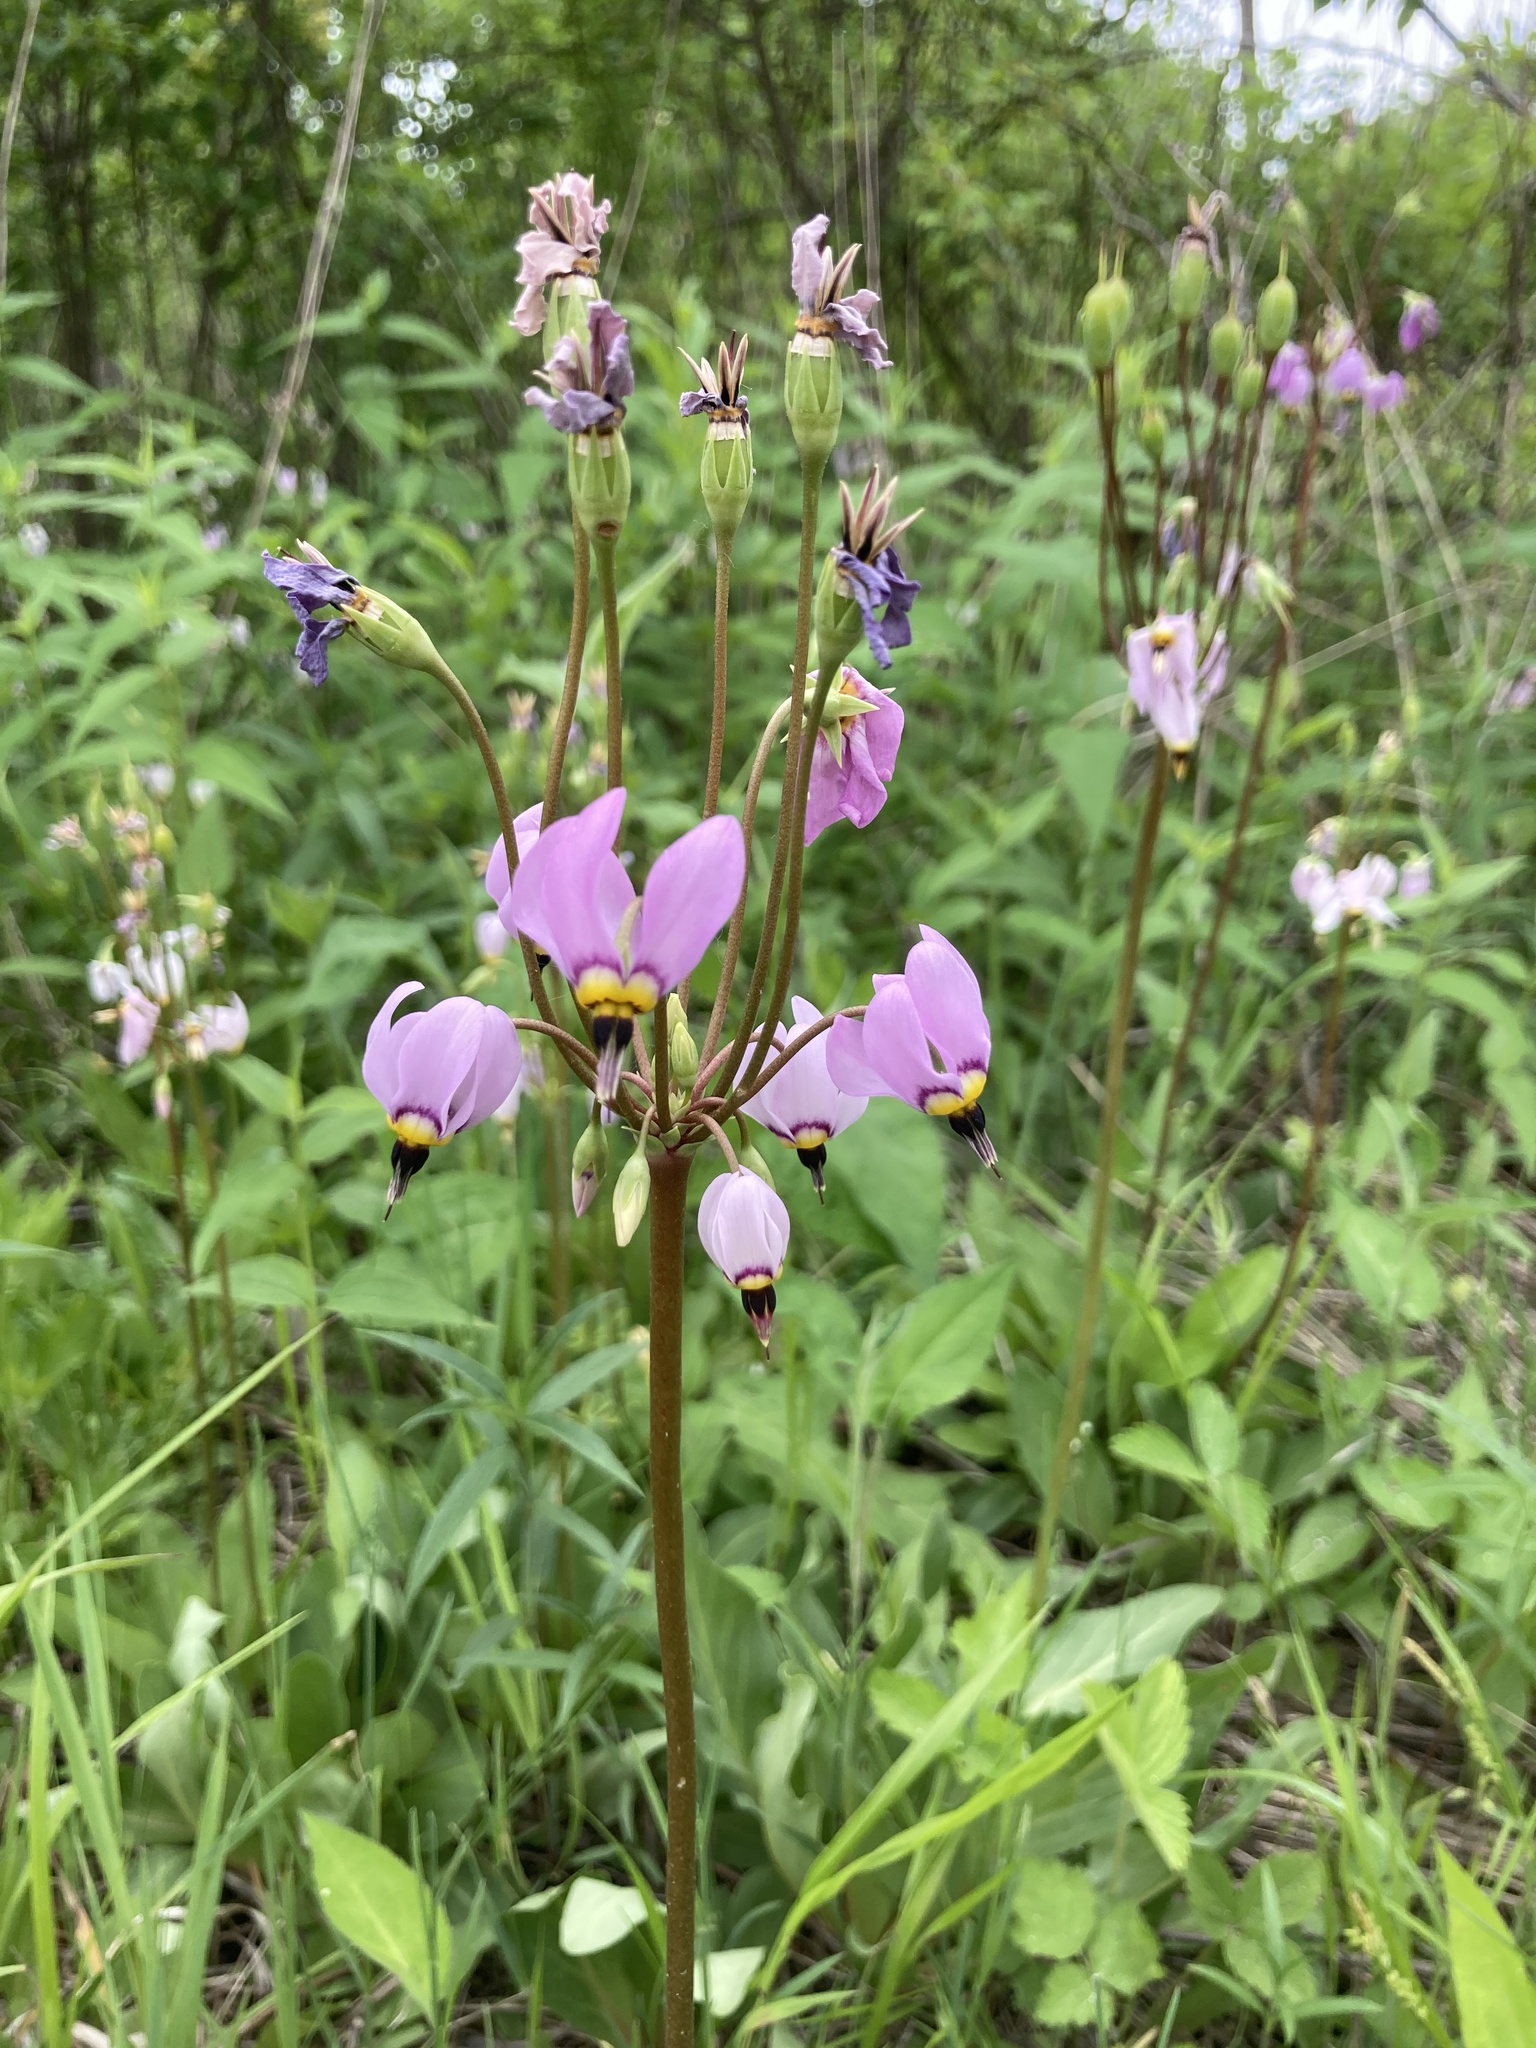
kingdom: Plantae
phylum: Tracheophyta
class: Magnoliopsida
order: Ericales
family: Primulaceae
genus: Dodecatheon
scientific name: Dodecatheon meadia
